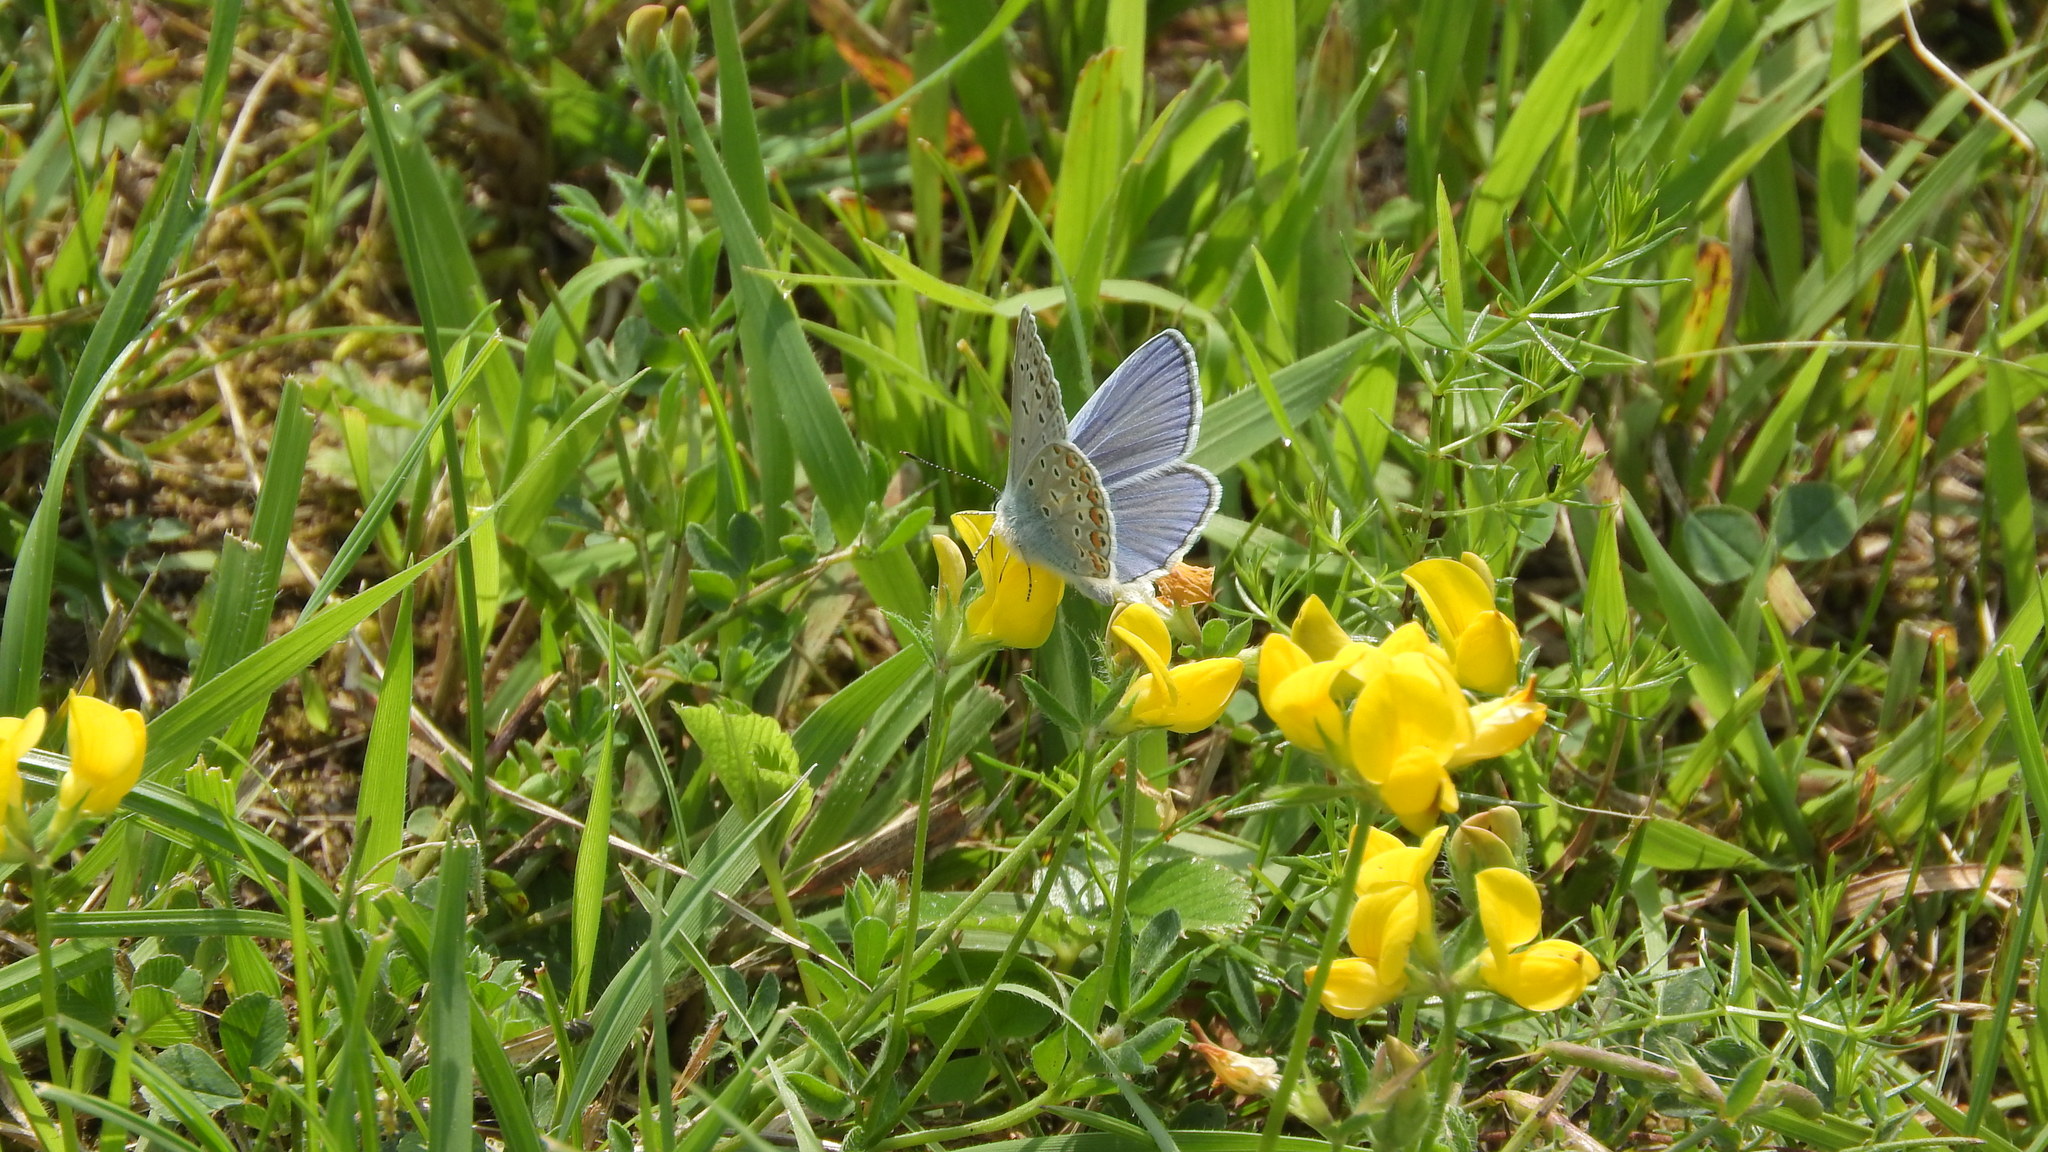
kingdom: Animalia
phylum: Arthropoda
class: Insecta
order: Lepidoptera
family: Lycaenidae
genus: Polyommatus
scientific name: Polyommatus icarus
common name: Common blue
